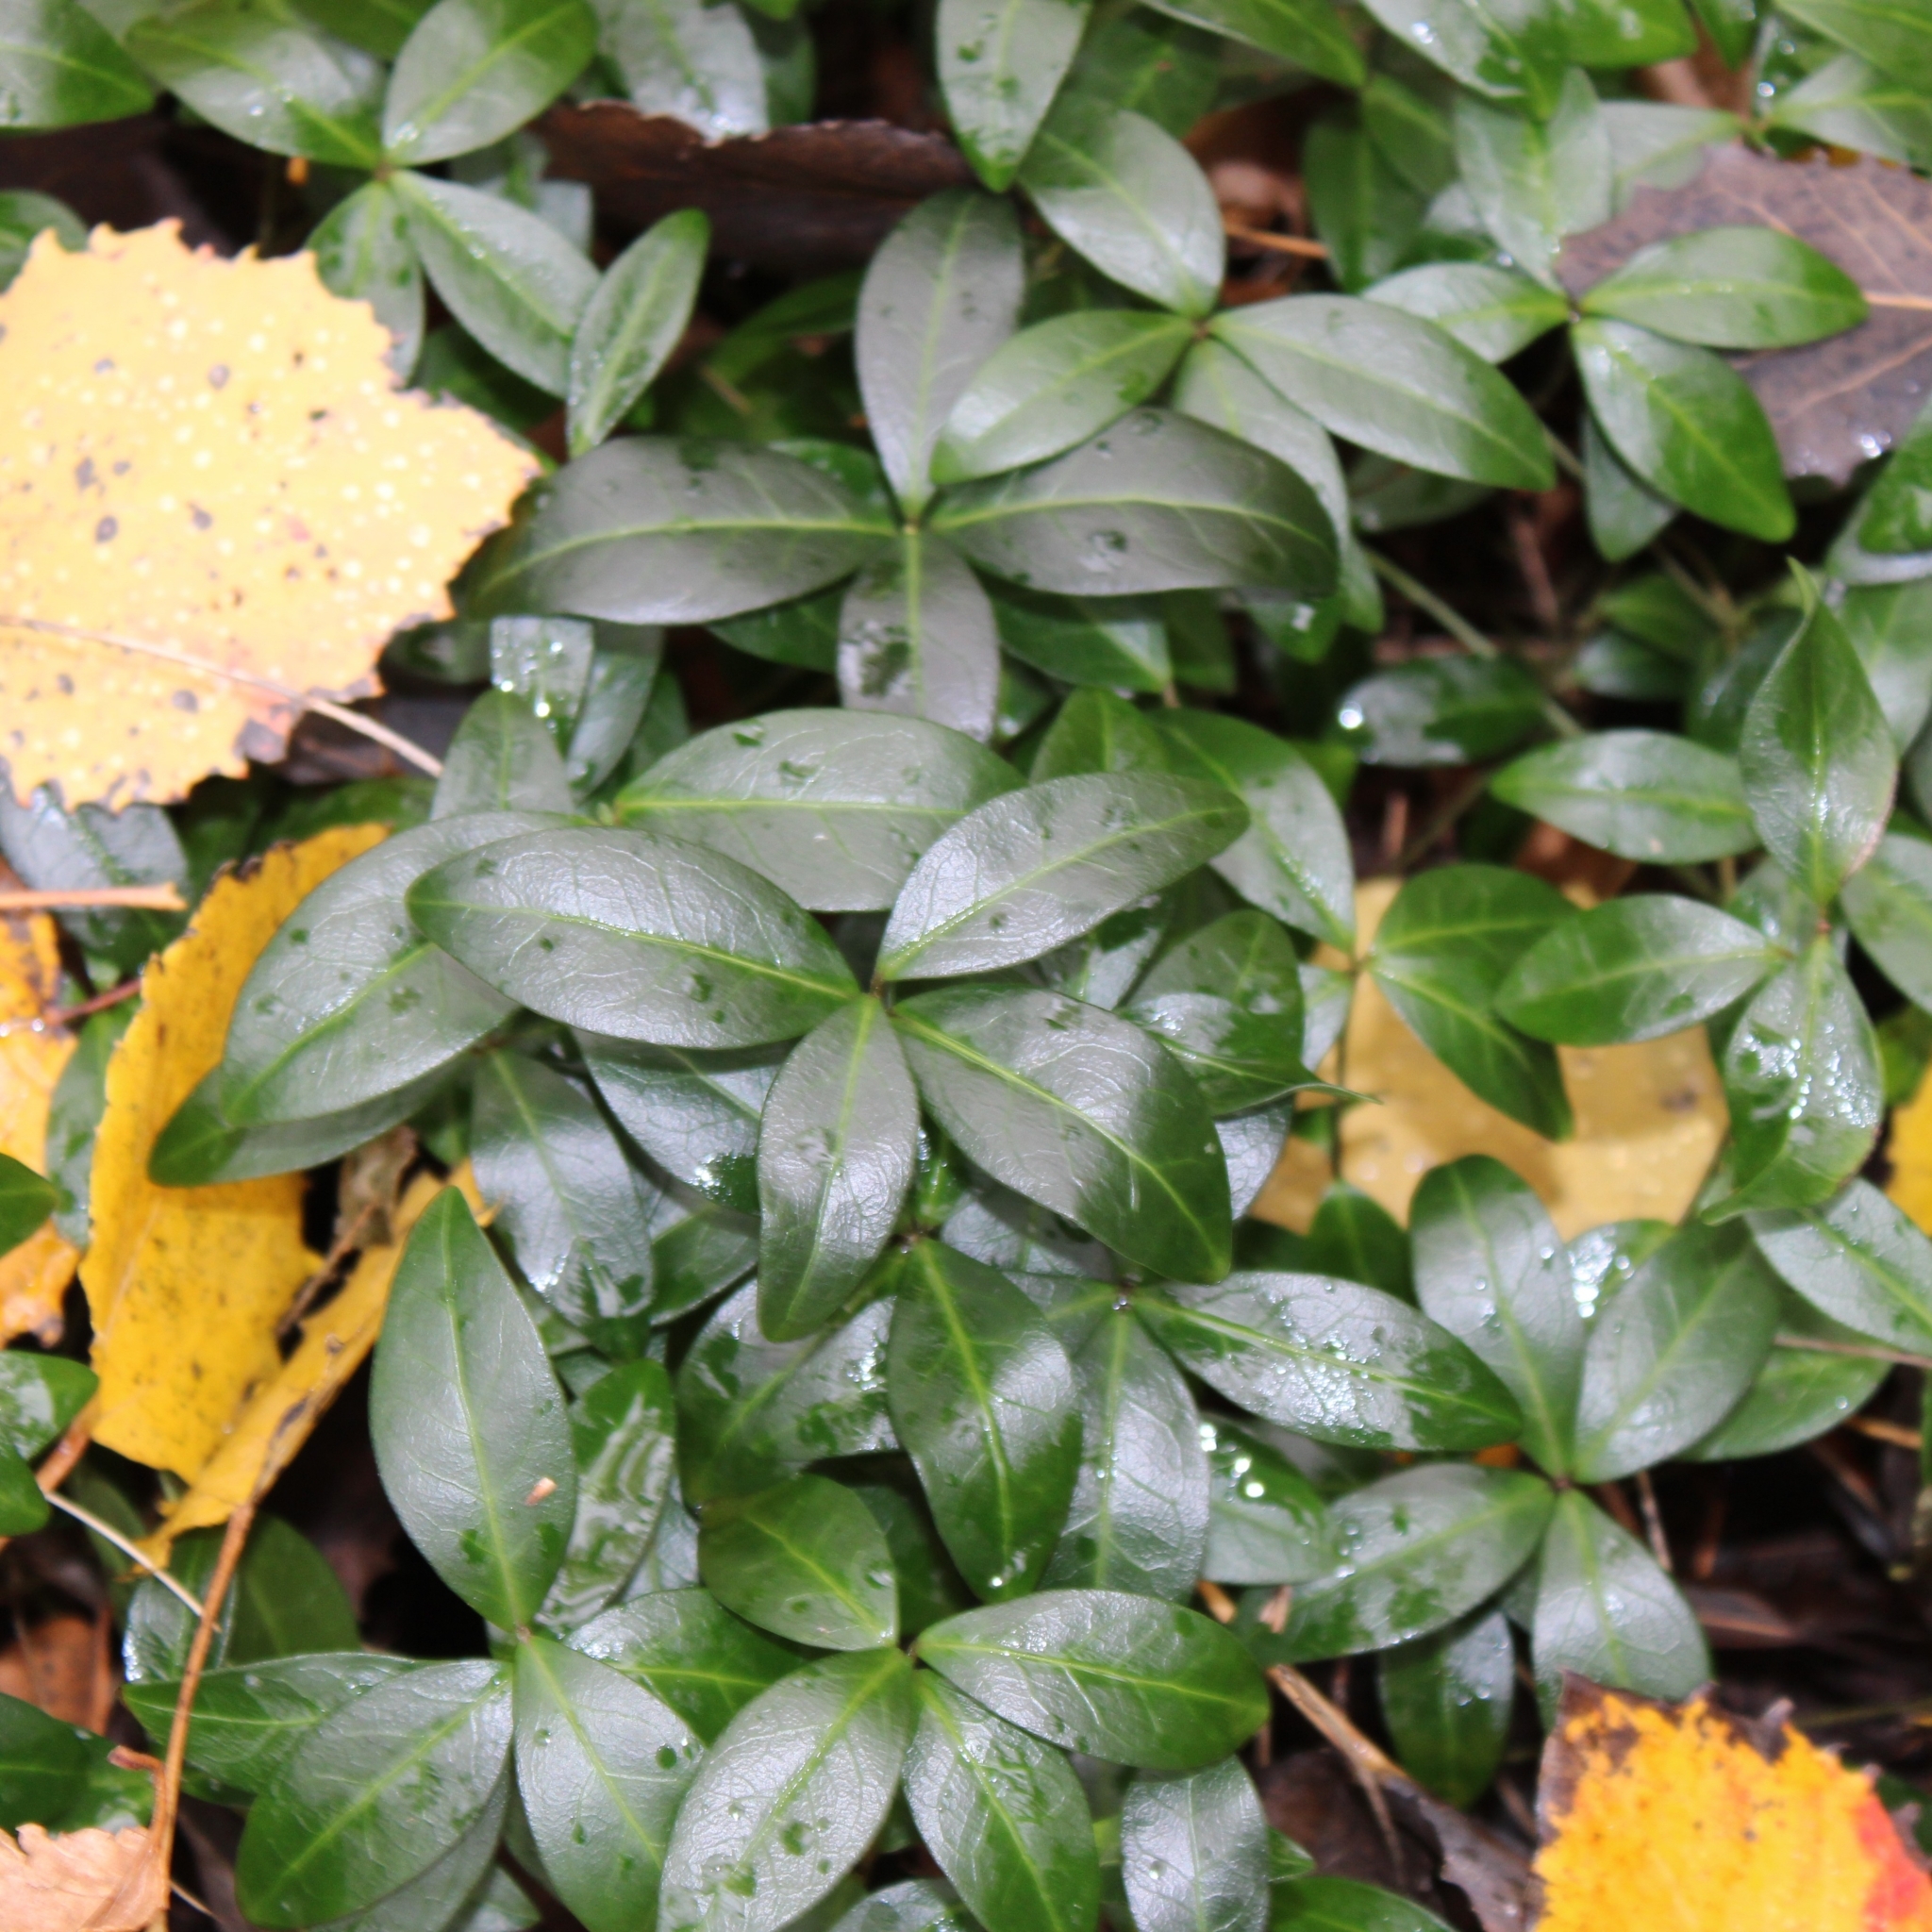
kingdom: Plantae
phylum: Tracheophyta
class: Magnoliopsida
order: Gentianales
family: Apocynaceae
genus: Vinca
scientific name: Vinca minor
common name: Lesser periwinkle
